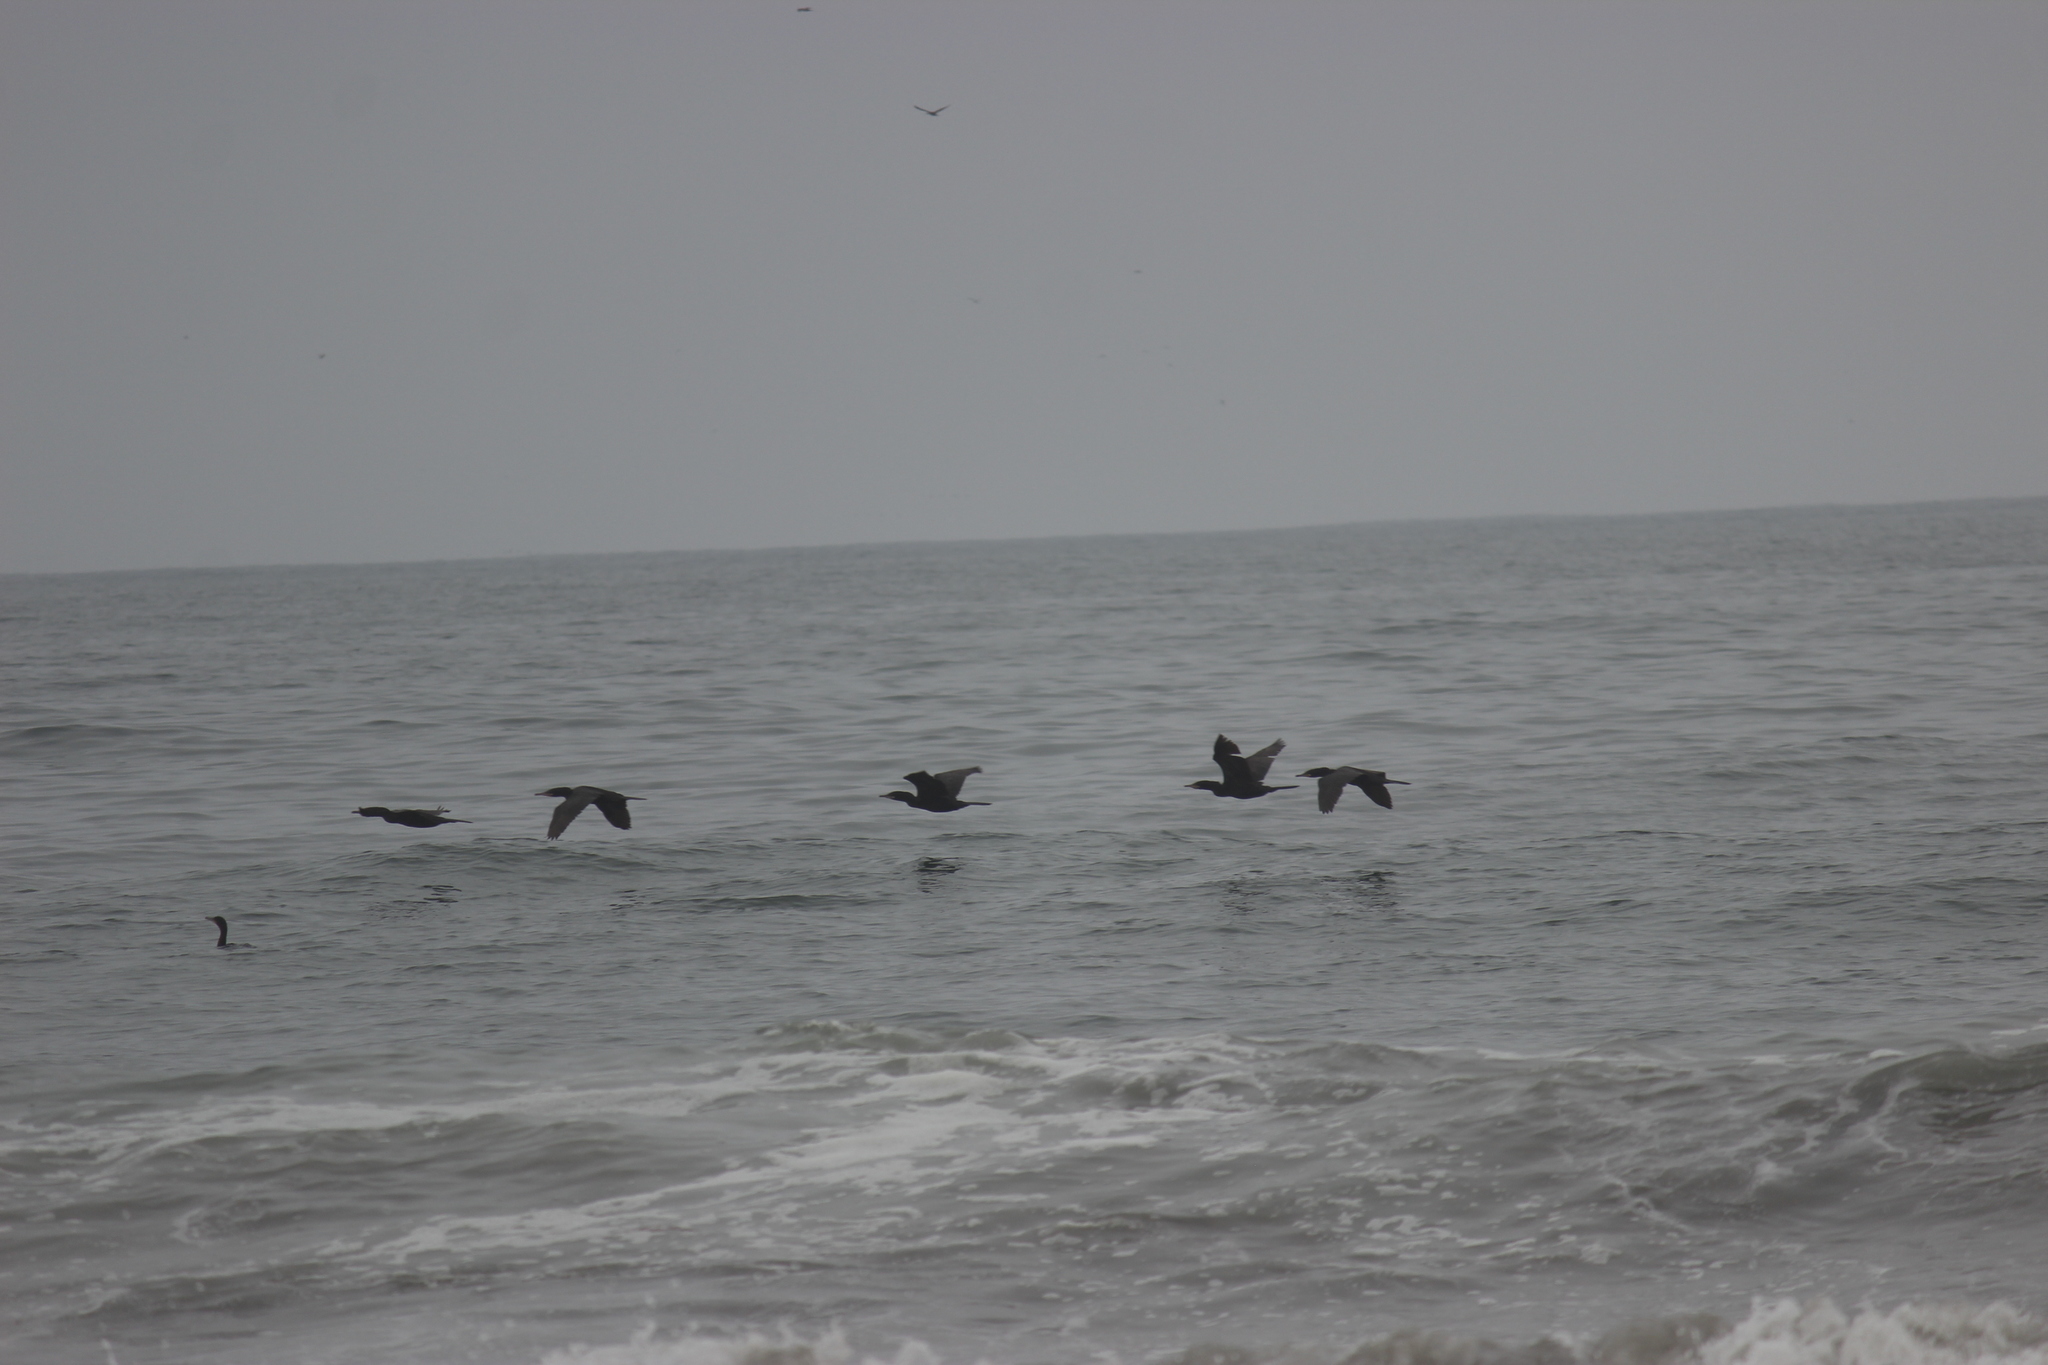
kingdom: Animalia
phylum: Chordata
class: Aves
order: Suliformes
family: Phalacrocoracidae
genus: Phalacrocorax
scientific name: Phalacrocorax brasilianus
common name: Neotropic cormorant
